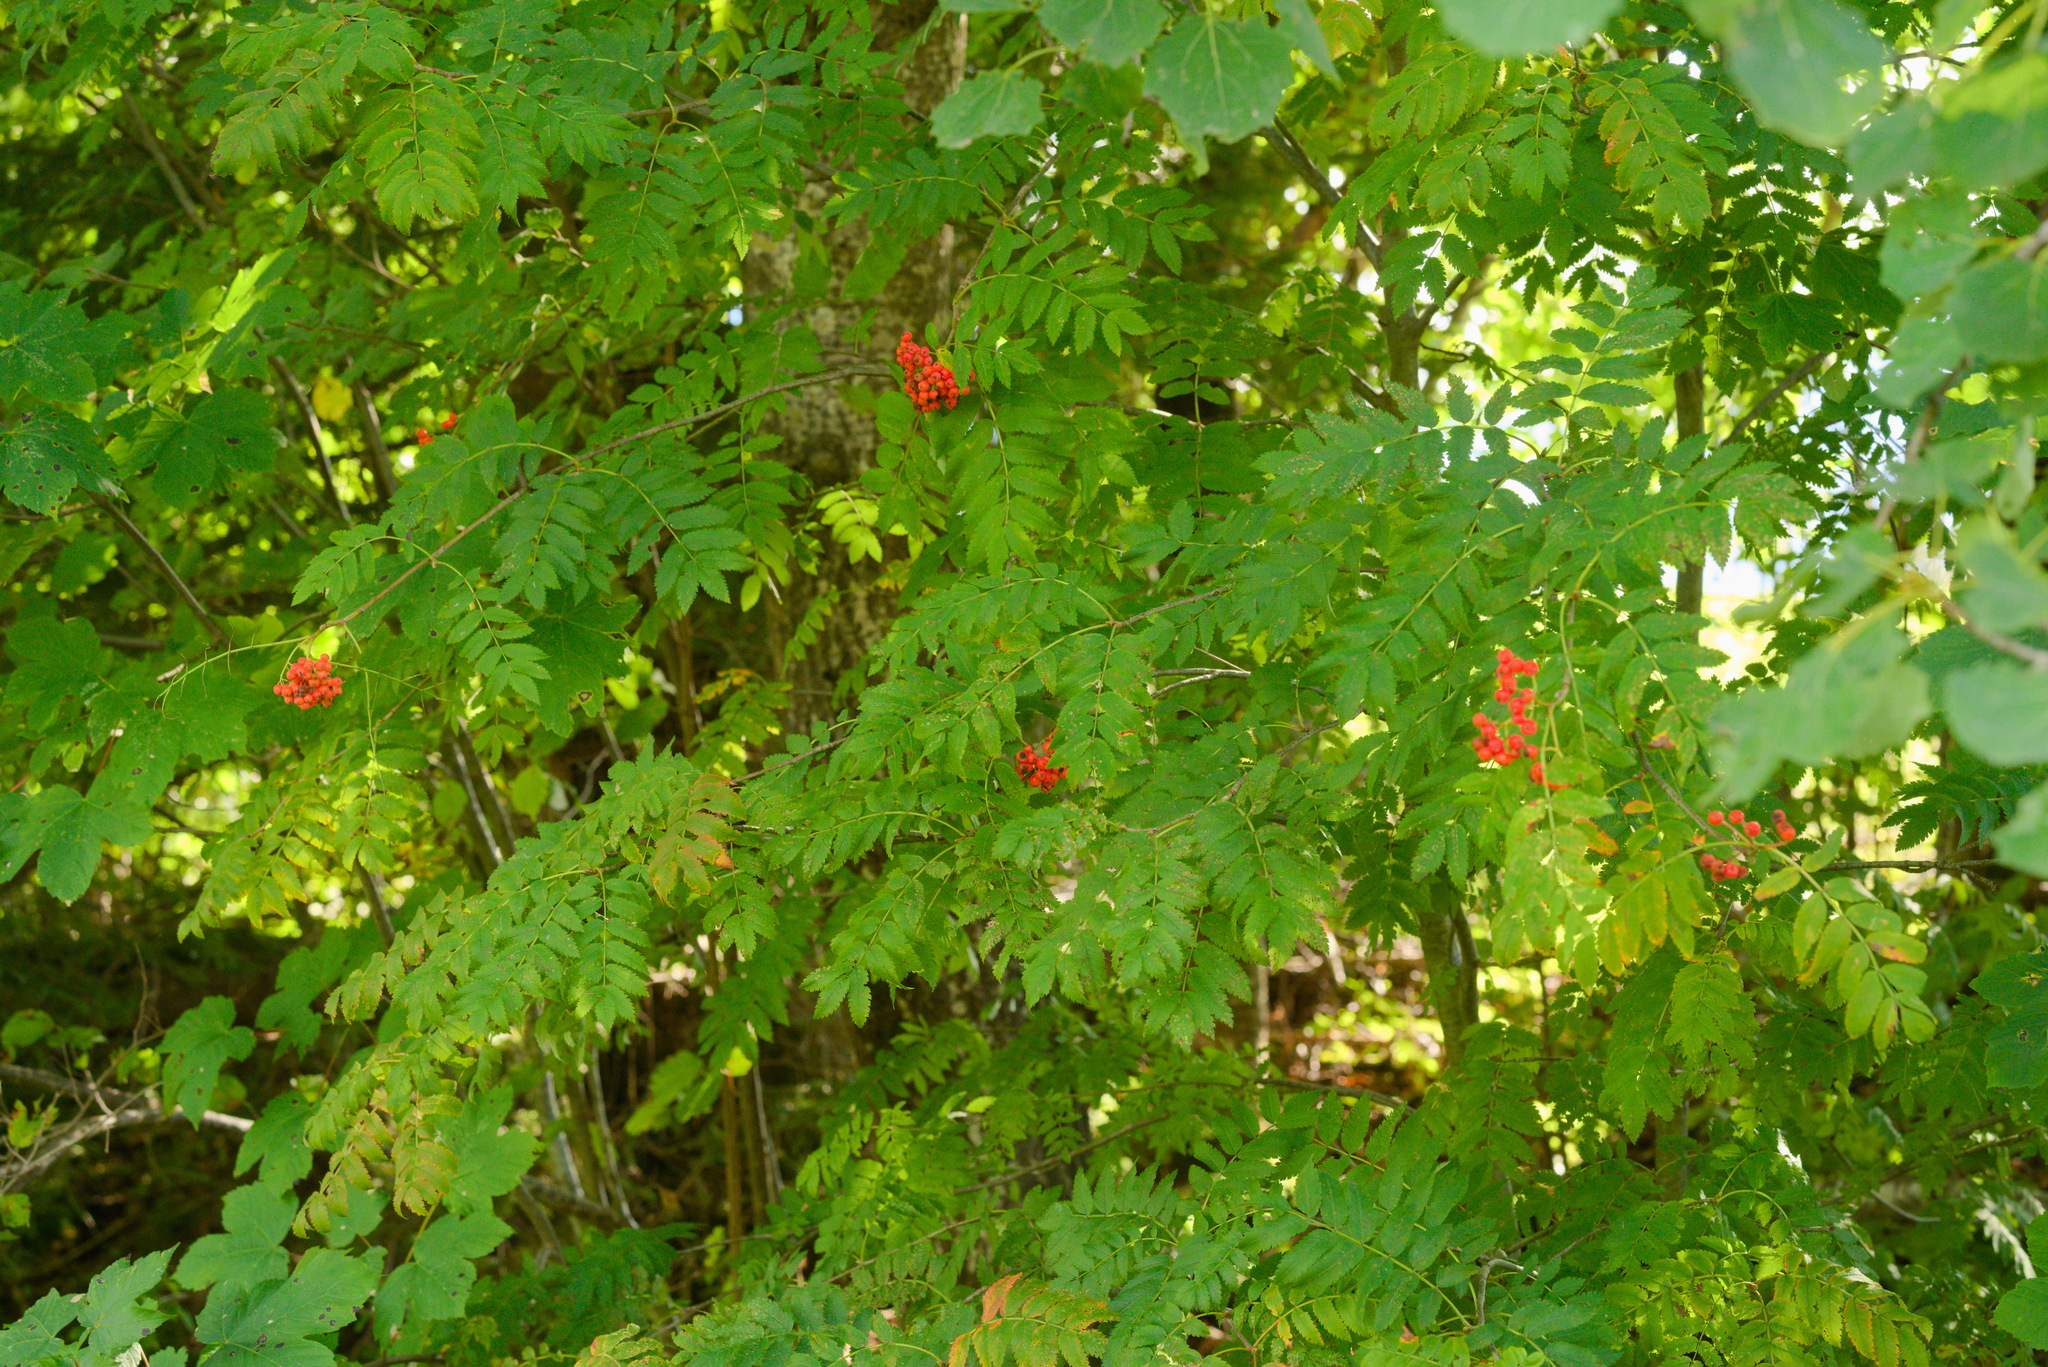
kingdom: Plantae
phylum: Tracheophyta
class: Magnoliopsida
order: Rosales
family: Rosaceae
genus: Sorbus
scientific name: Sorbus aucuparia
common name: Rowan
